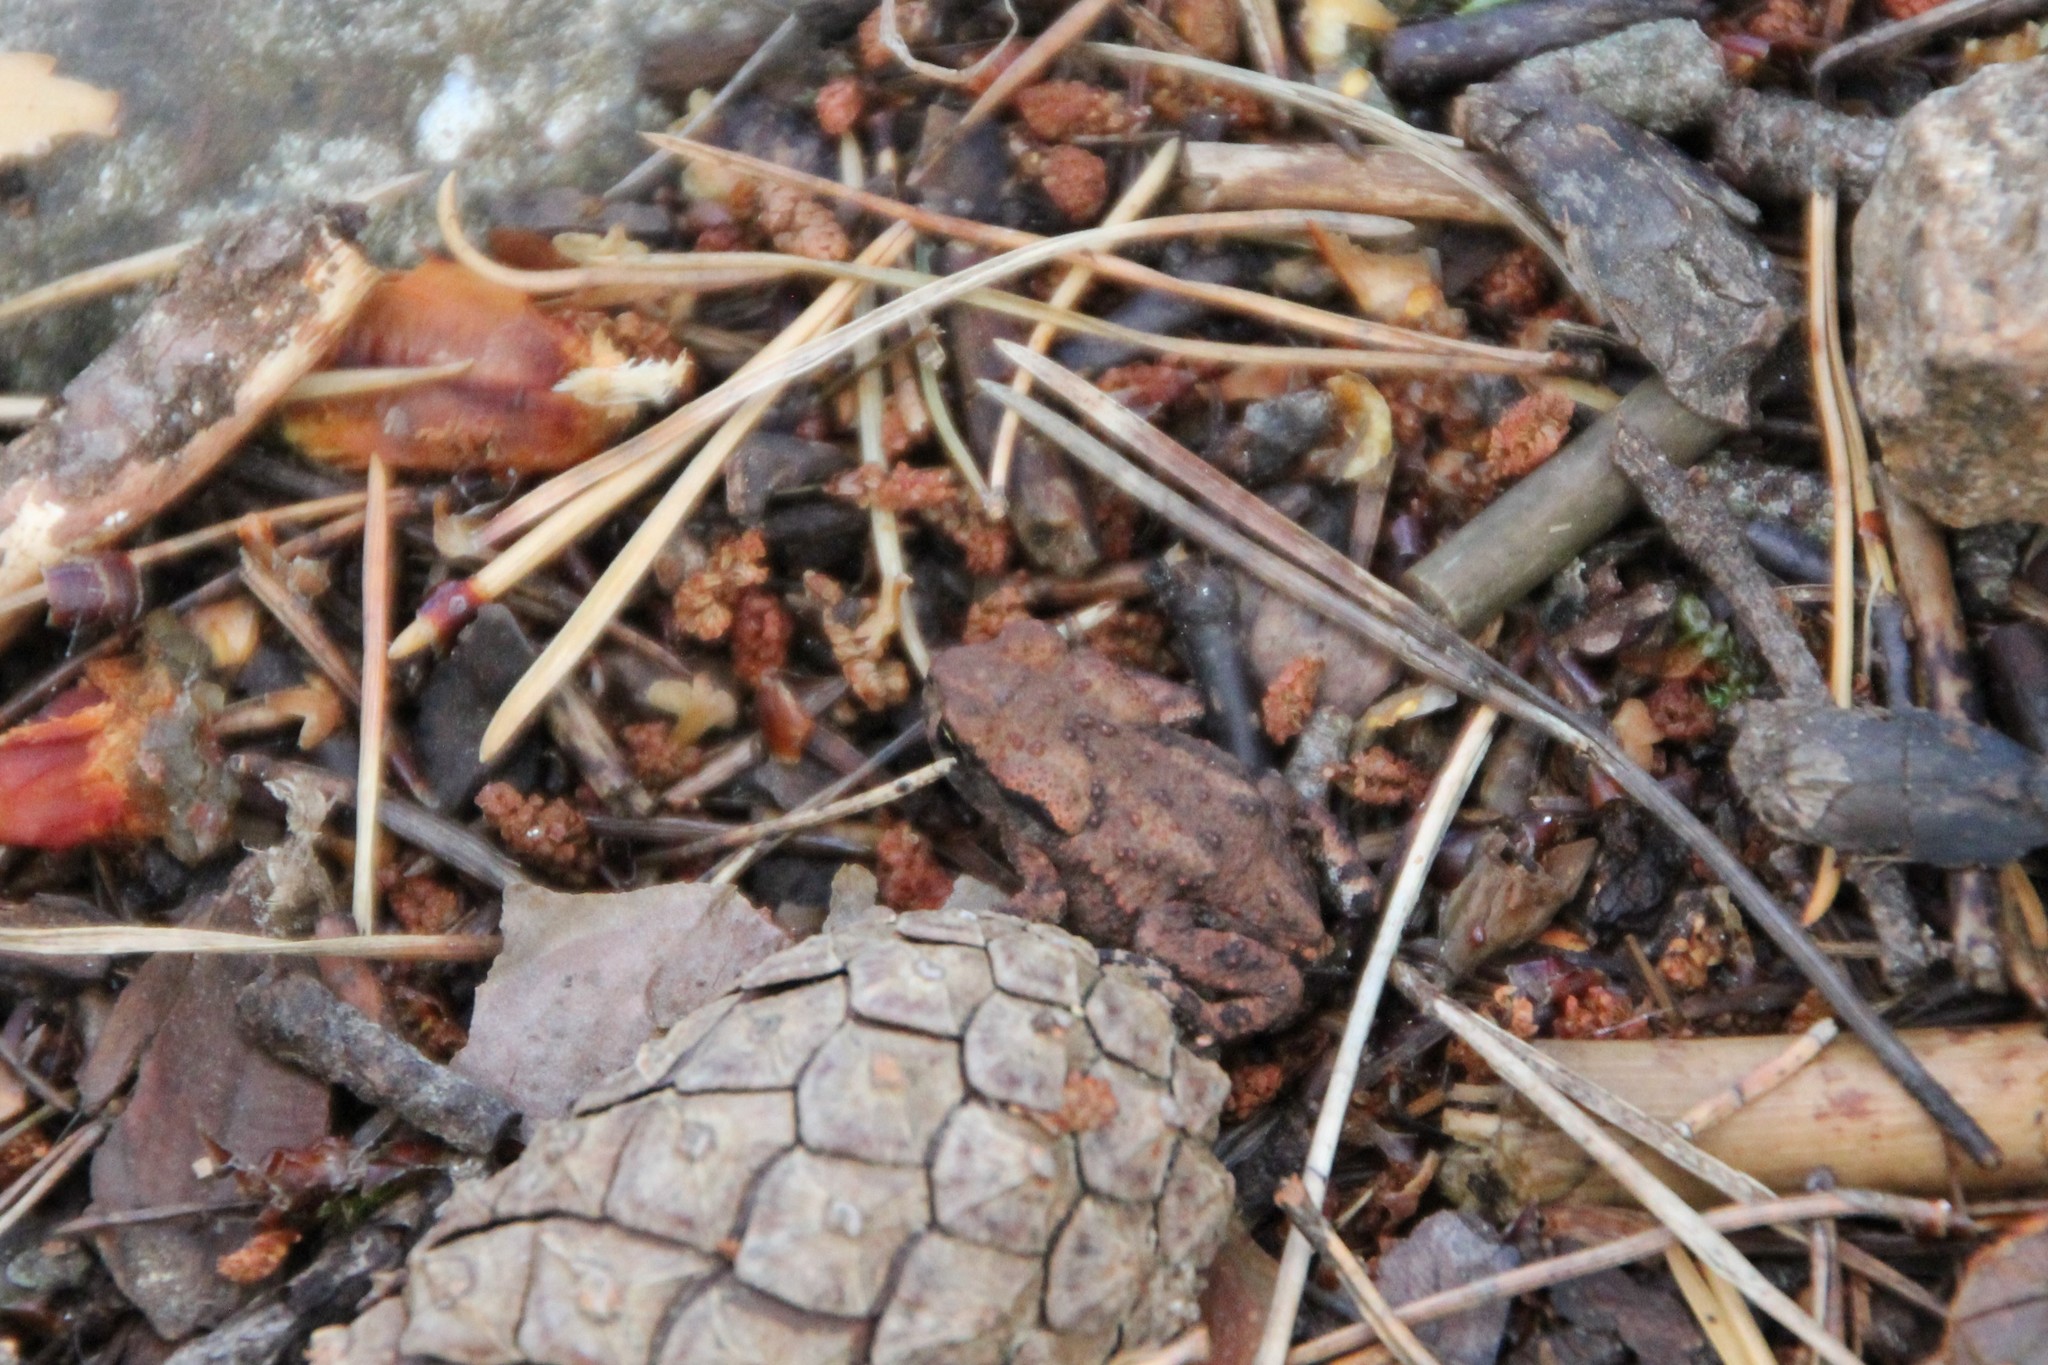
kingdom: Animalia
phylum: Chordata
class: Amphibia
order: Anura
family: Bufonidae
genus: Bufo
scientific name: Bufo bufo
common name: Common toad
